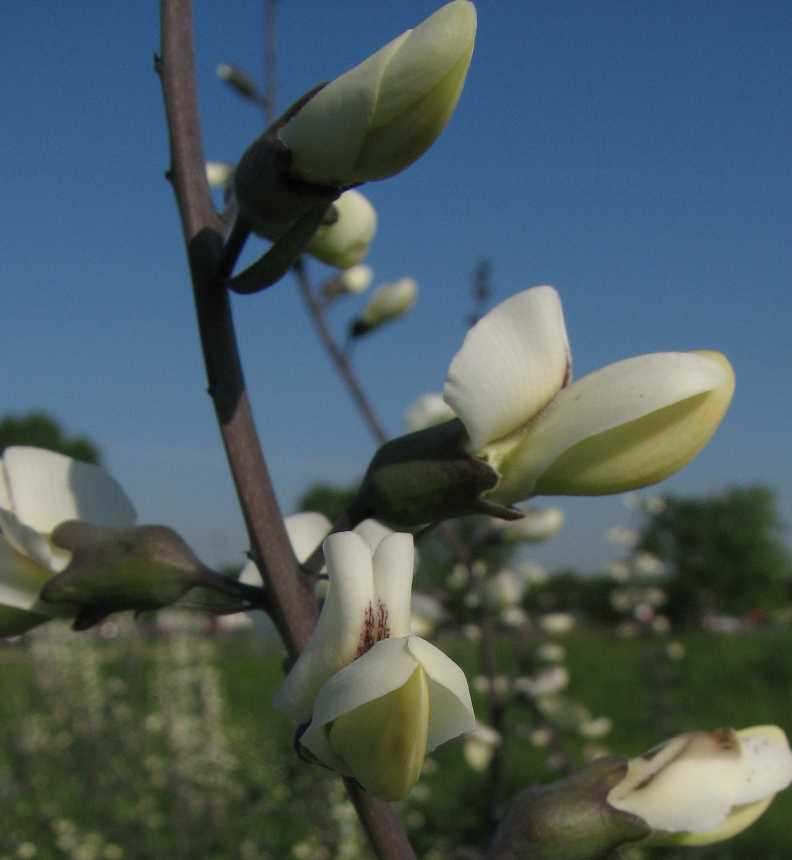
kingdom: Plantae
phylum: Tracheophyta
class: Magnoliopsida
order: Fabales
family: Fabaceae
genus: Baptisia
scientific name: Baptisia alba
